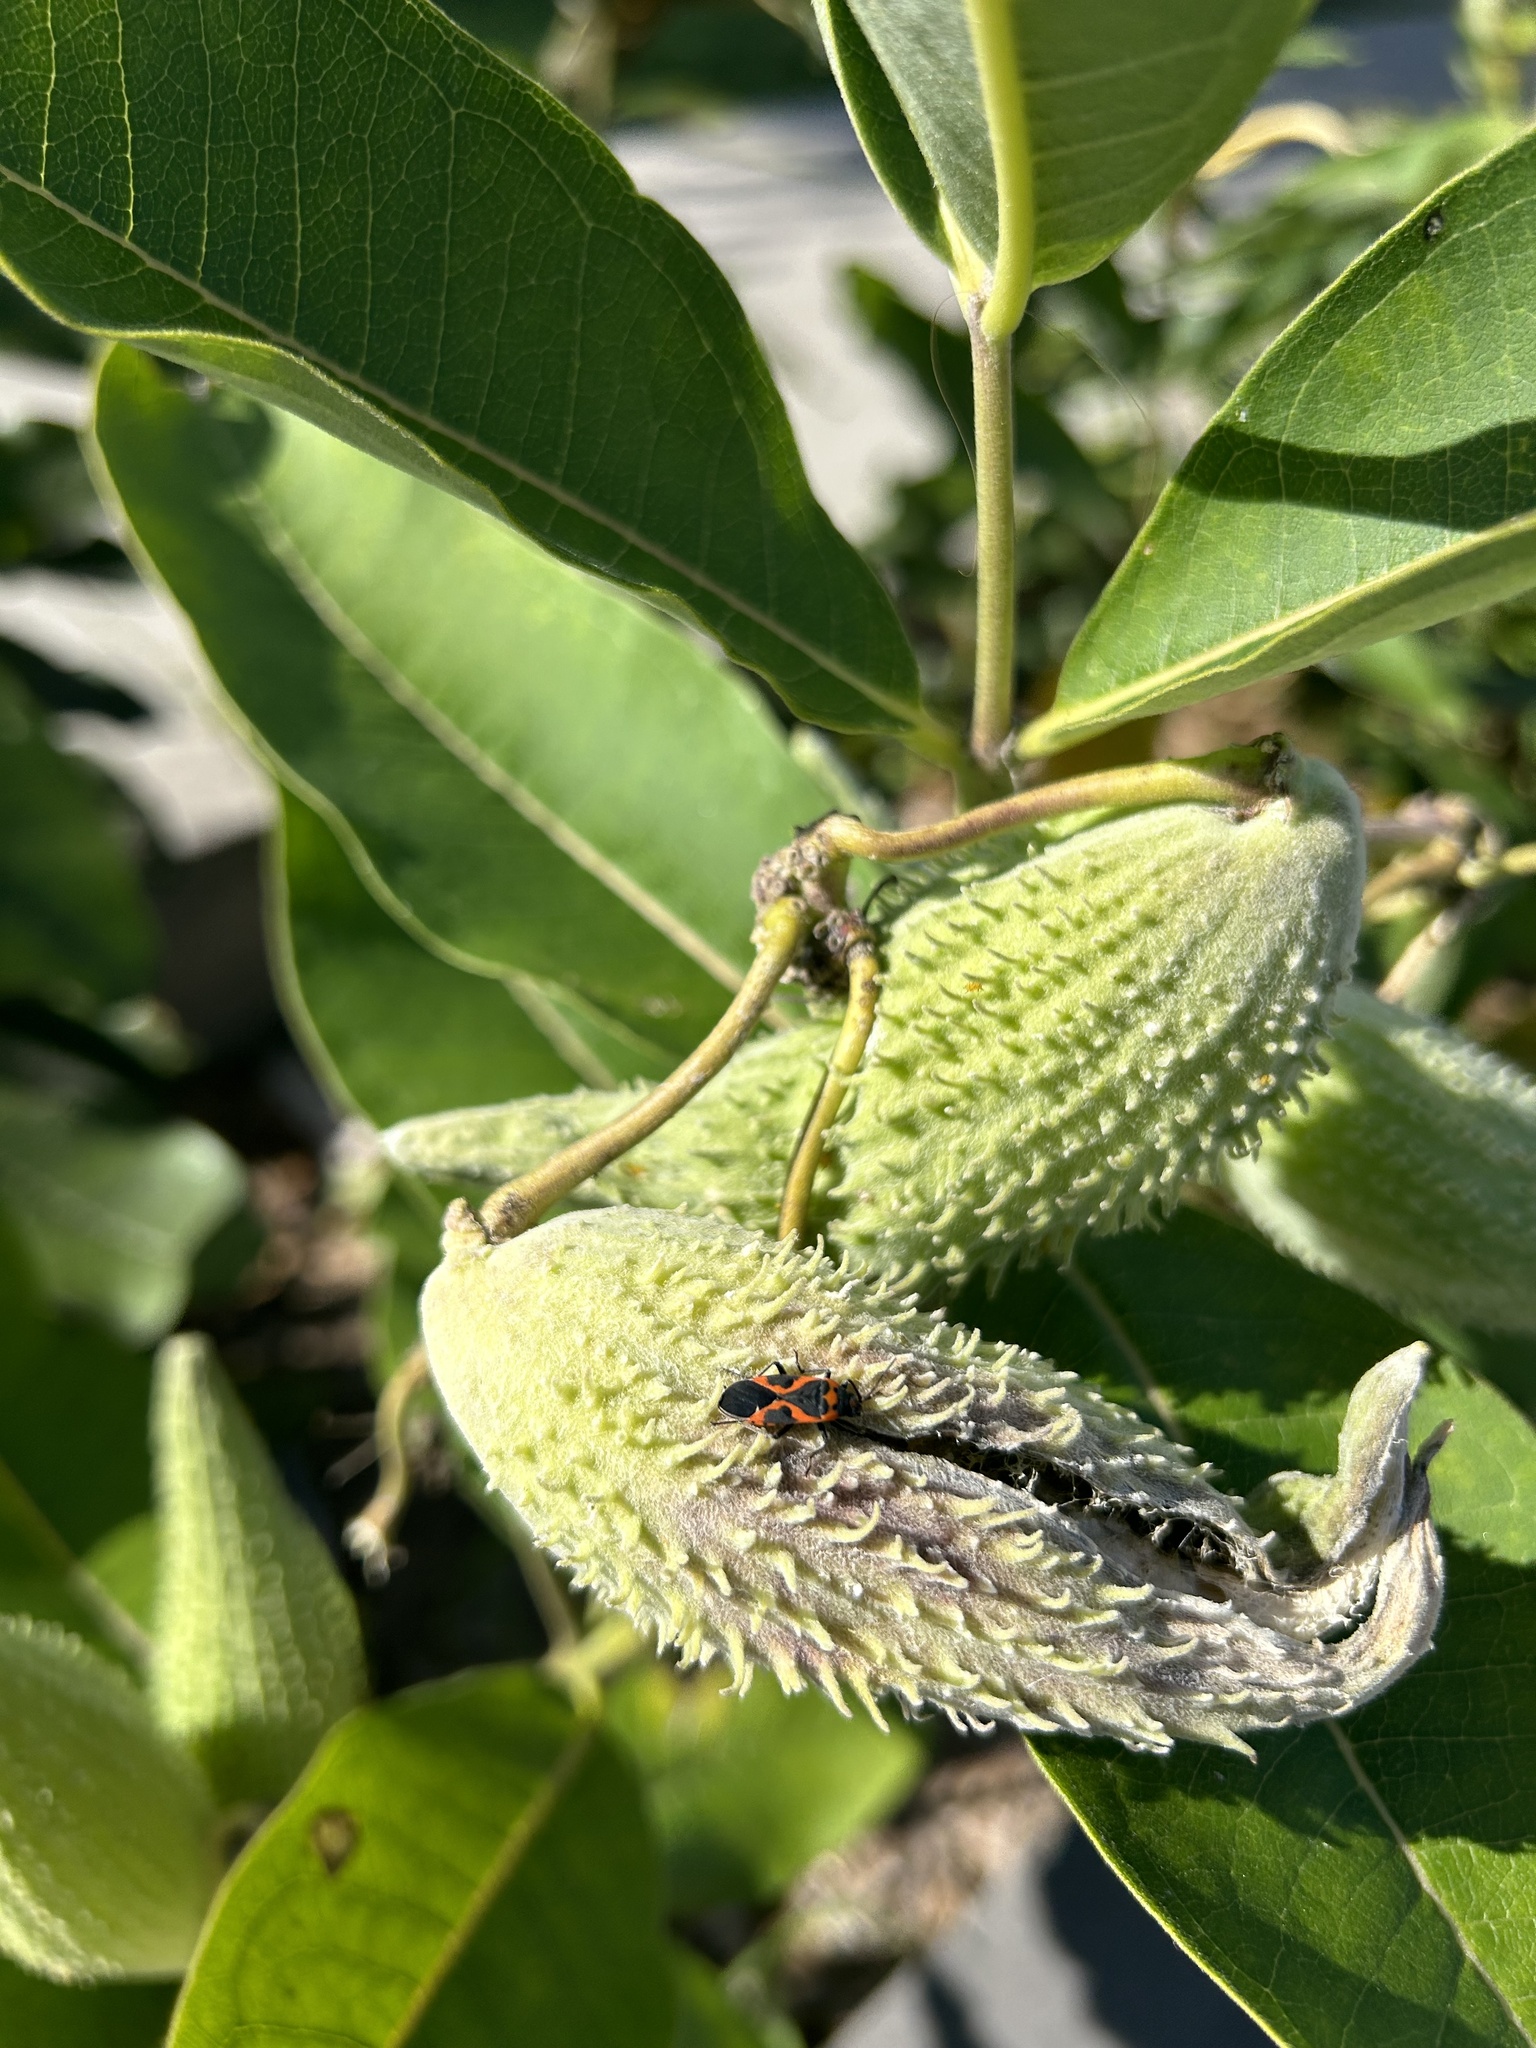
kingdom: Animalia
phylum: Arthropoda
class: Insecta
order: Hemiptera
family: Lygaeidae
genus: Lygaeus
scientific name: Lygaeus kalmii
